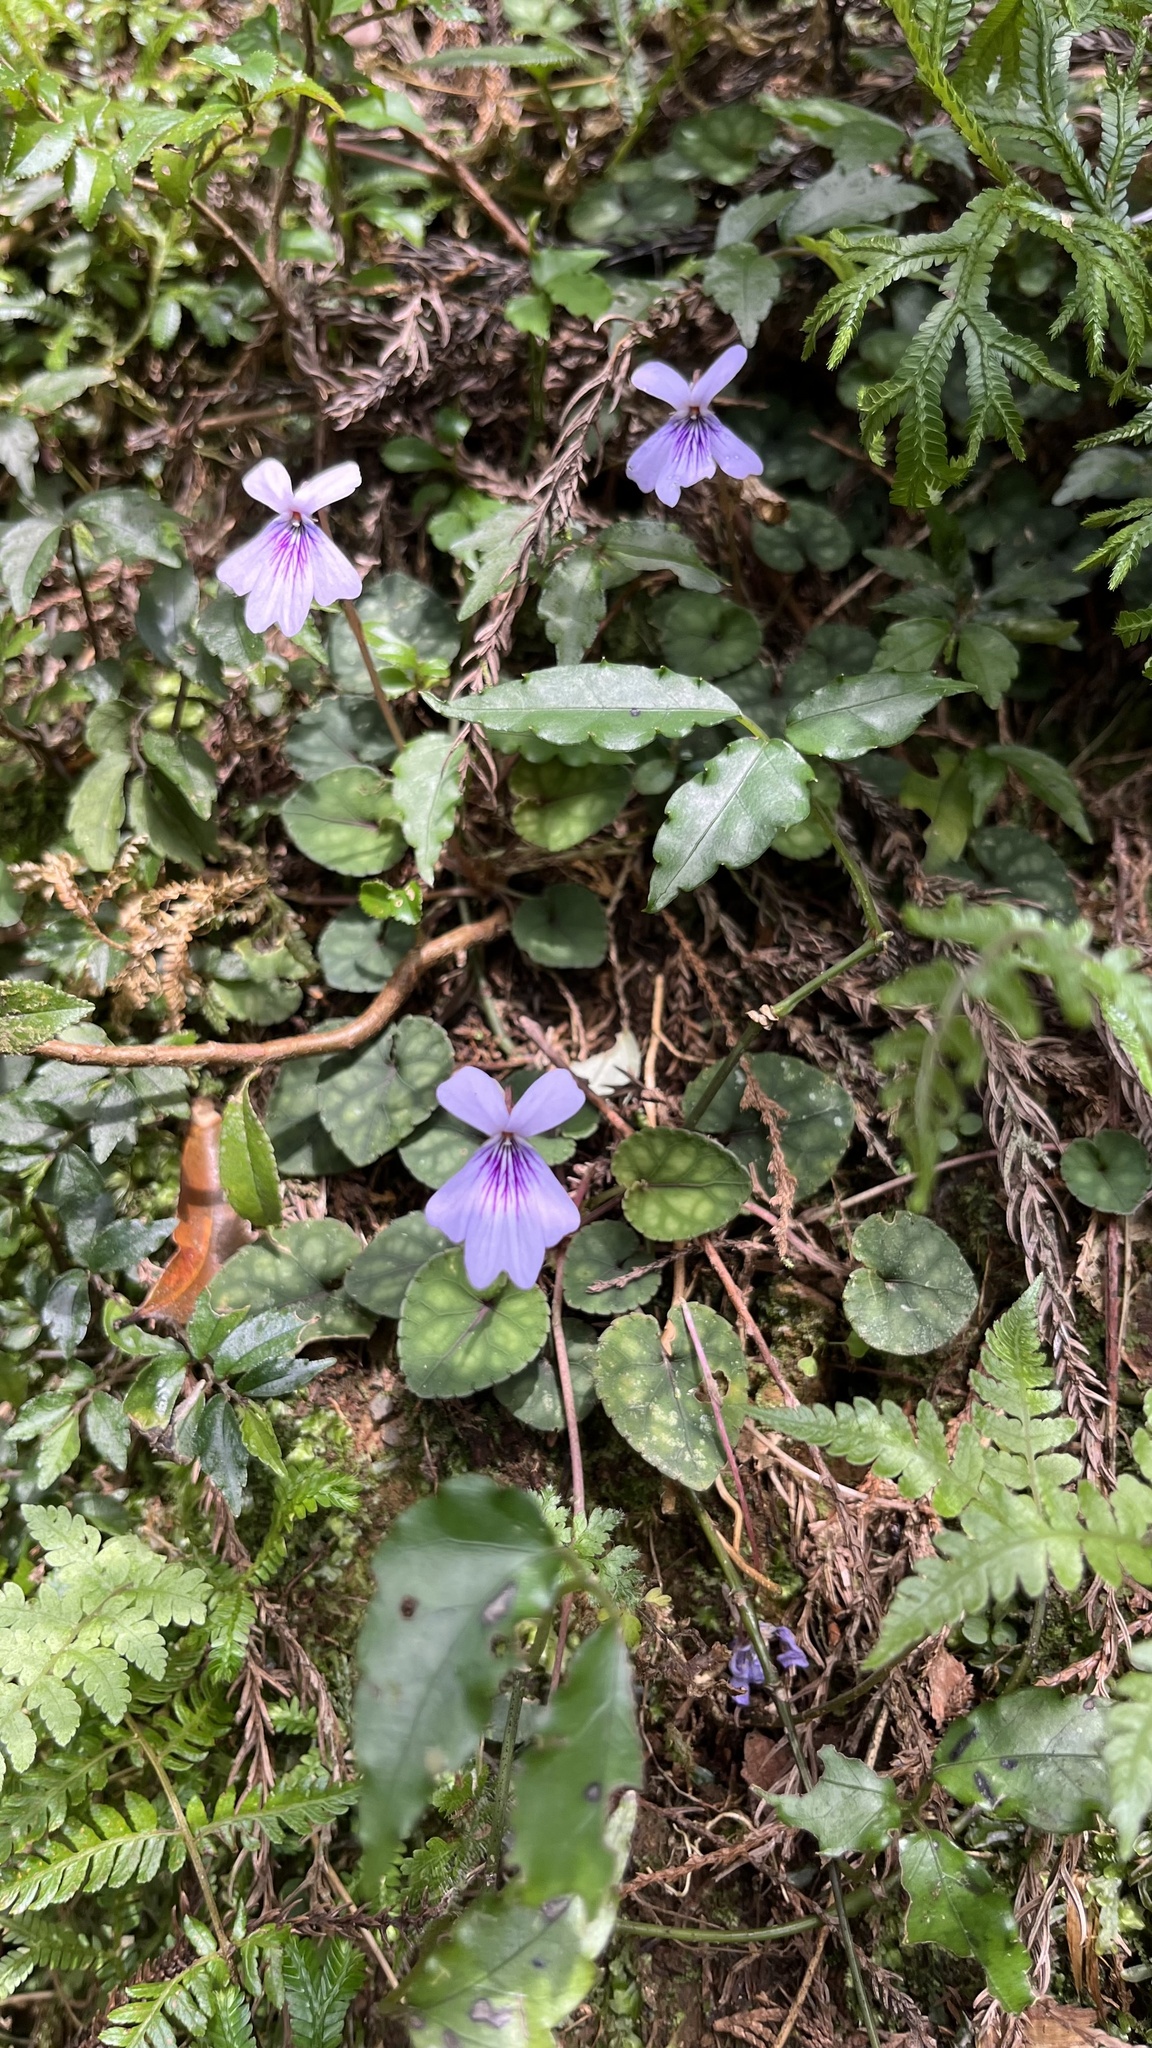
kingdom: Plantae
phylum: Tracheophyta
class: Magnoliopsida
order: Malpighiales
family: Violaceae
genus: Viola
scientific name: Viola formosana
